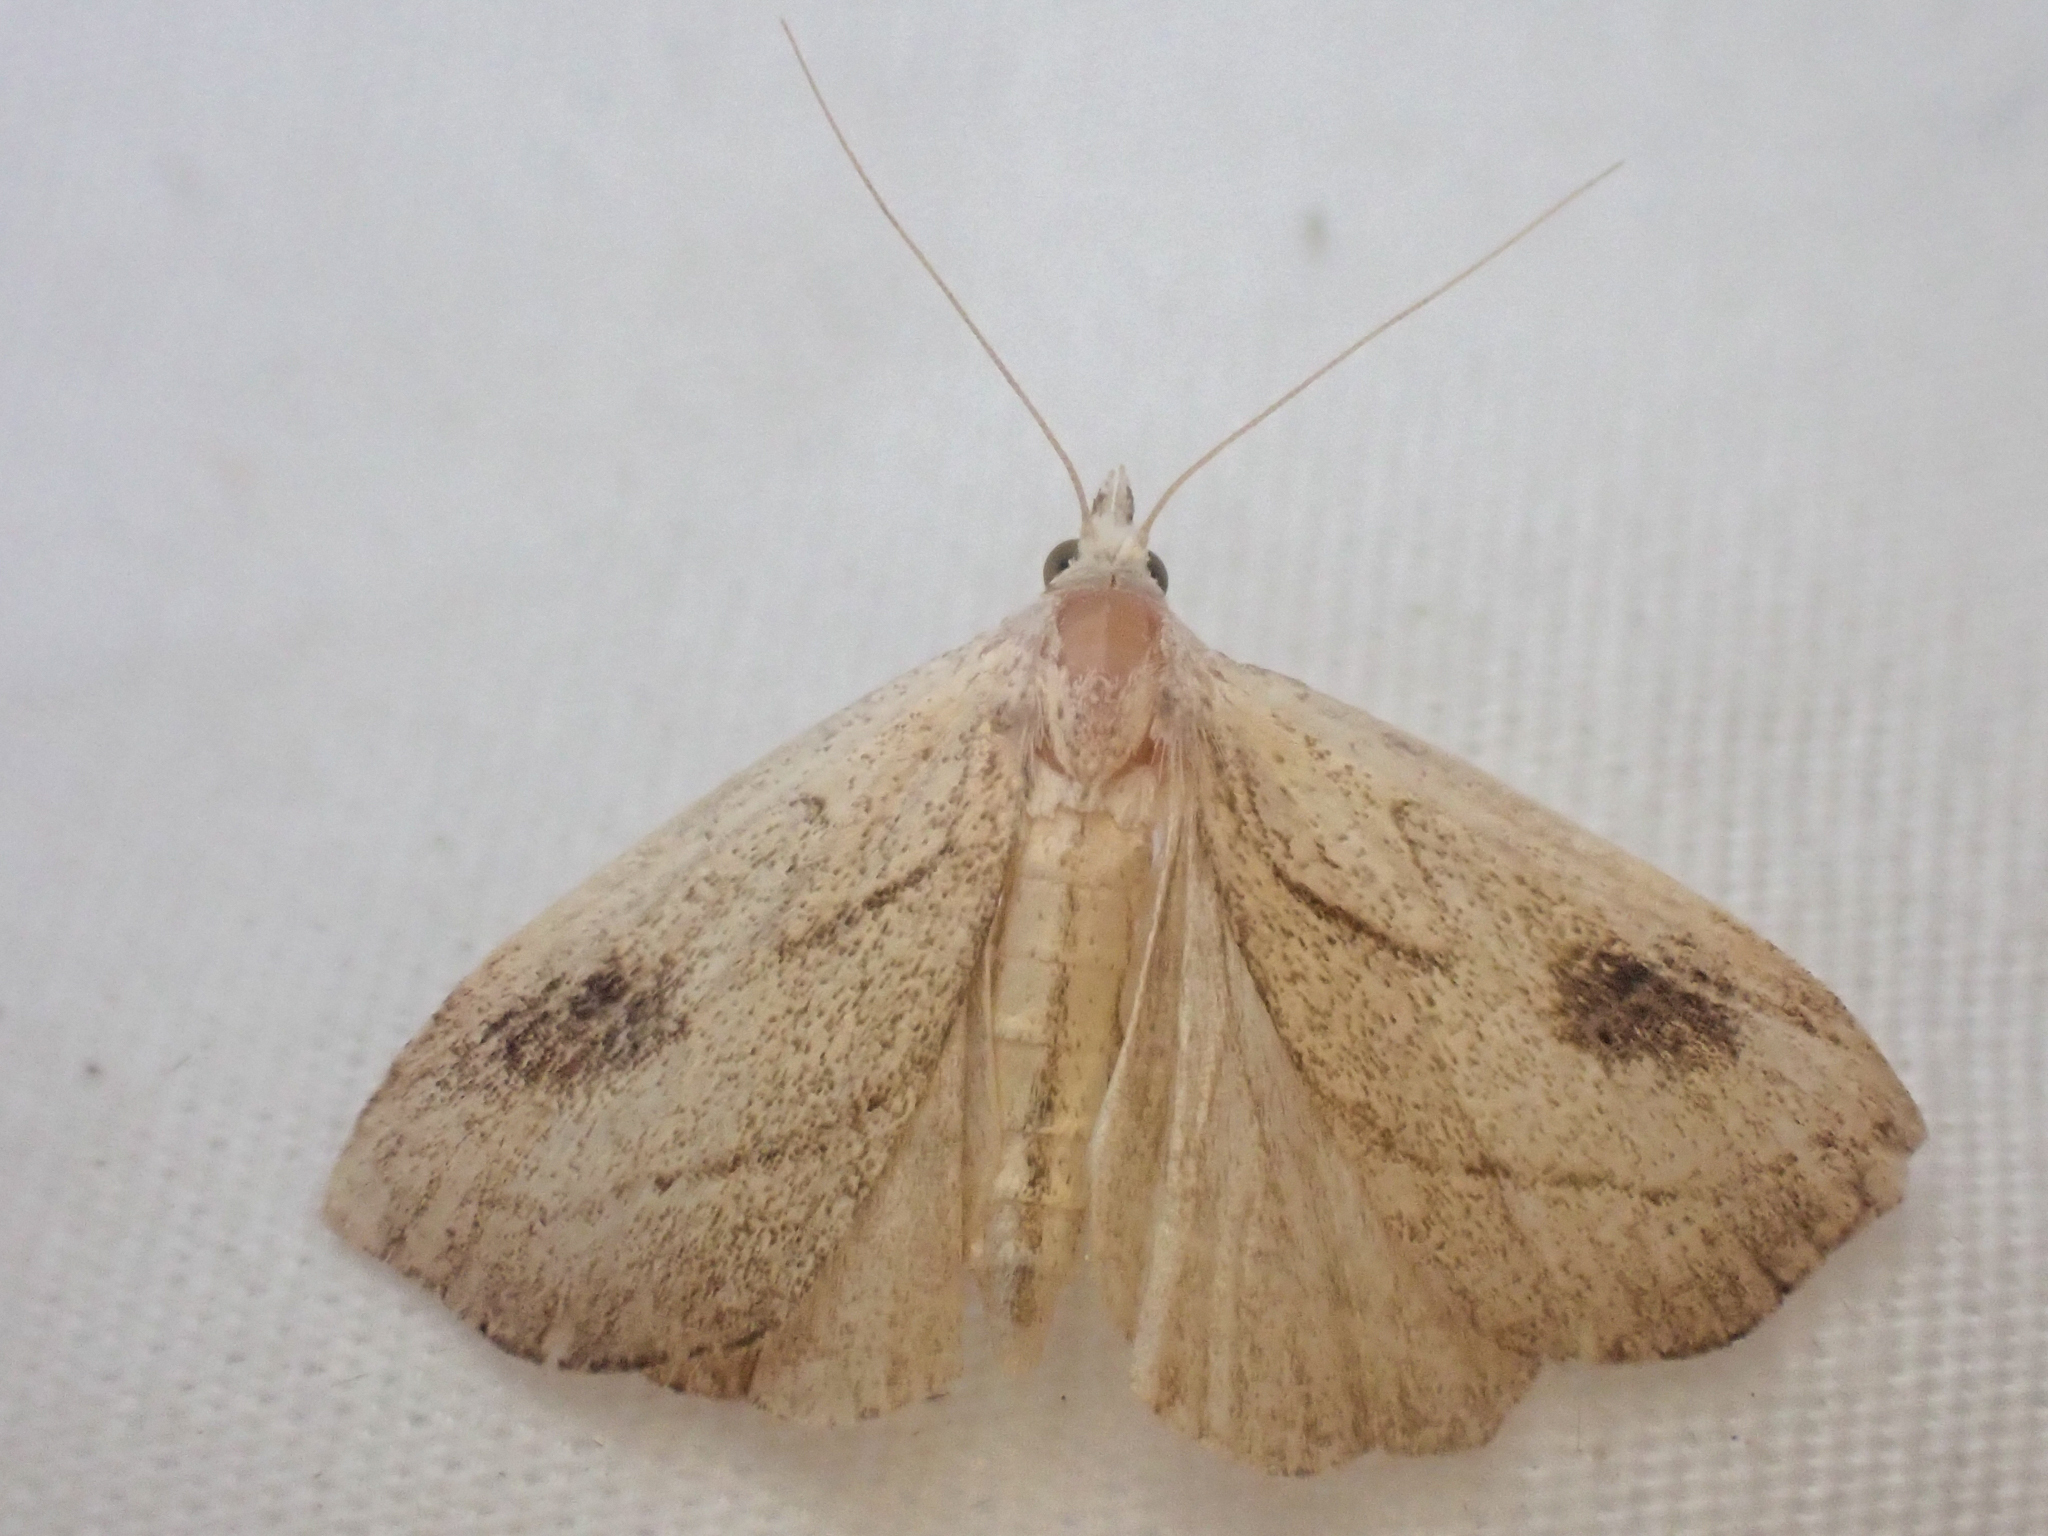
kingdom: Animalia
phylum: Arthropoda
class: Insecta
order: Lepidoptera
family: Erebidae
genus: Rivula
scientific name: Rivula propinqualis
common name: Spotted grass moth
